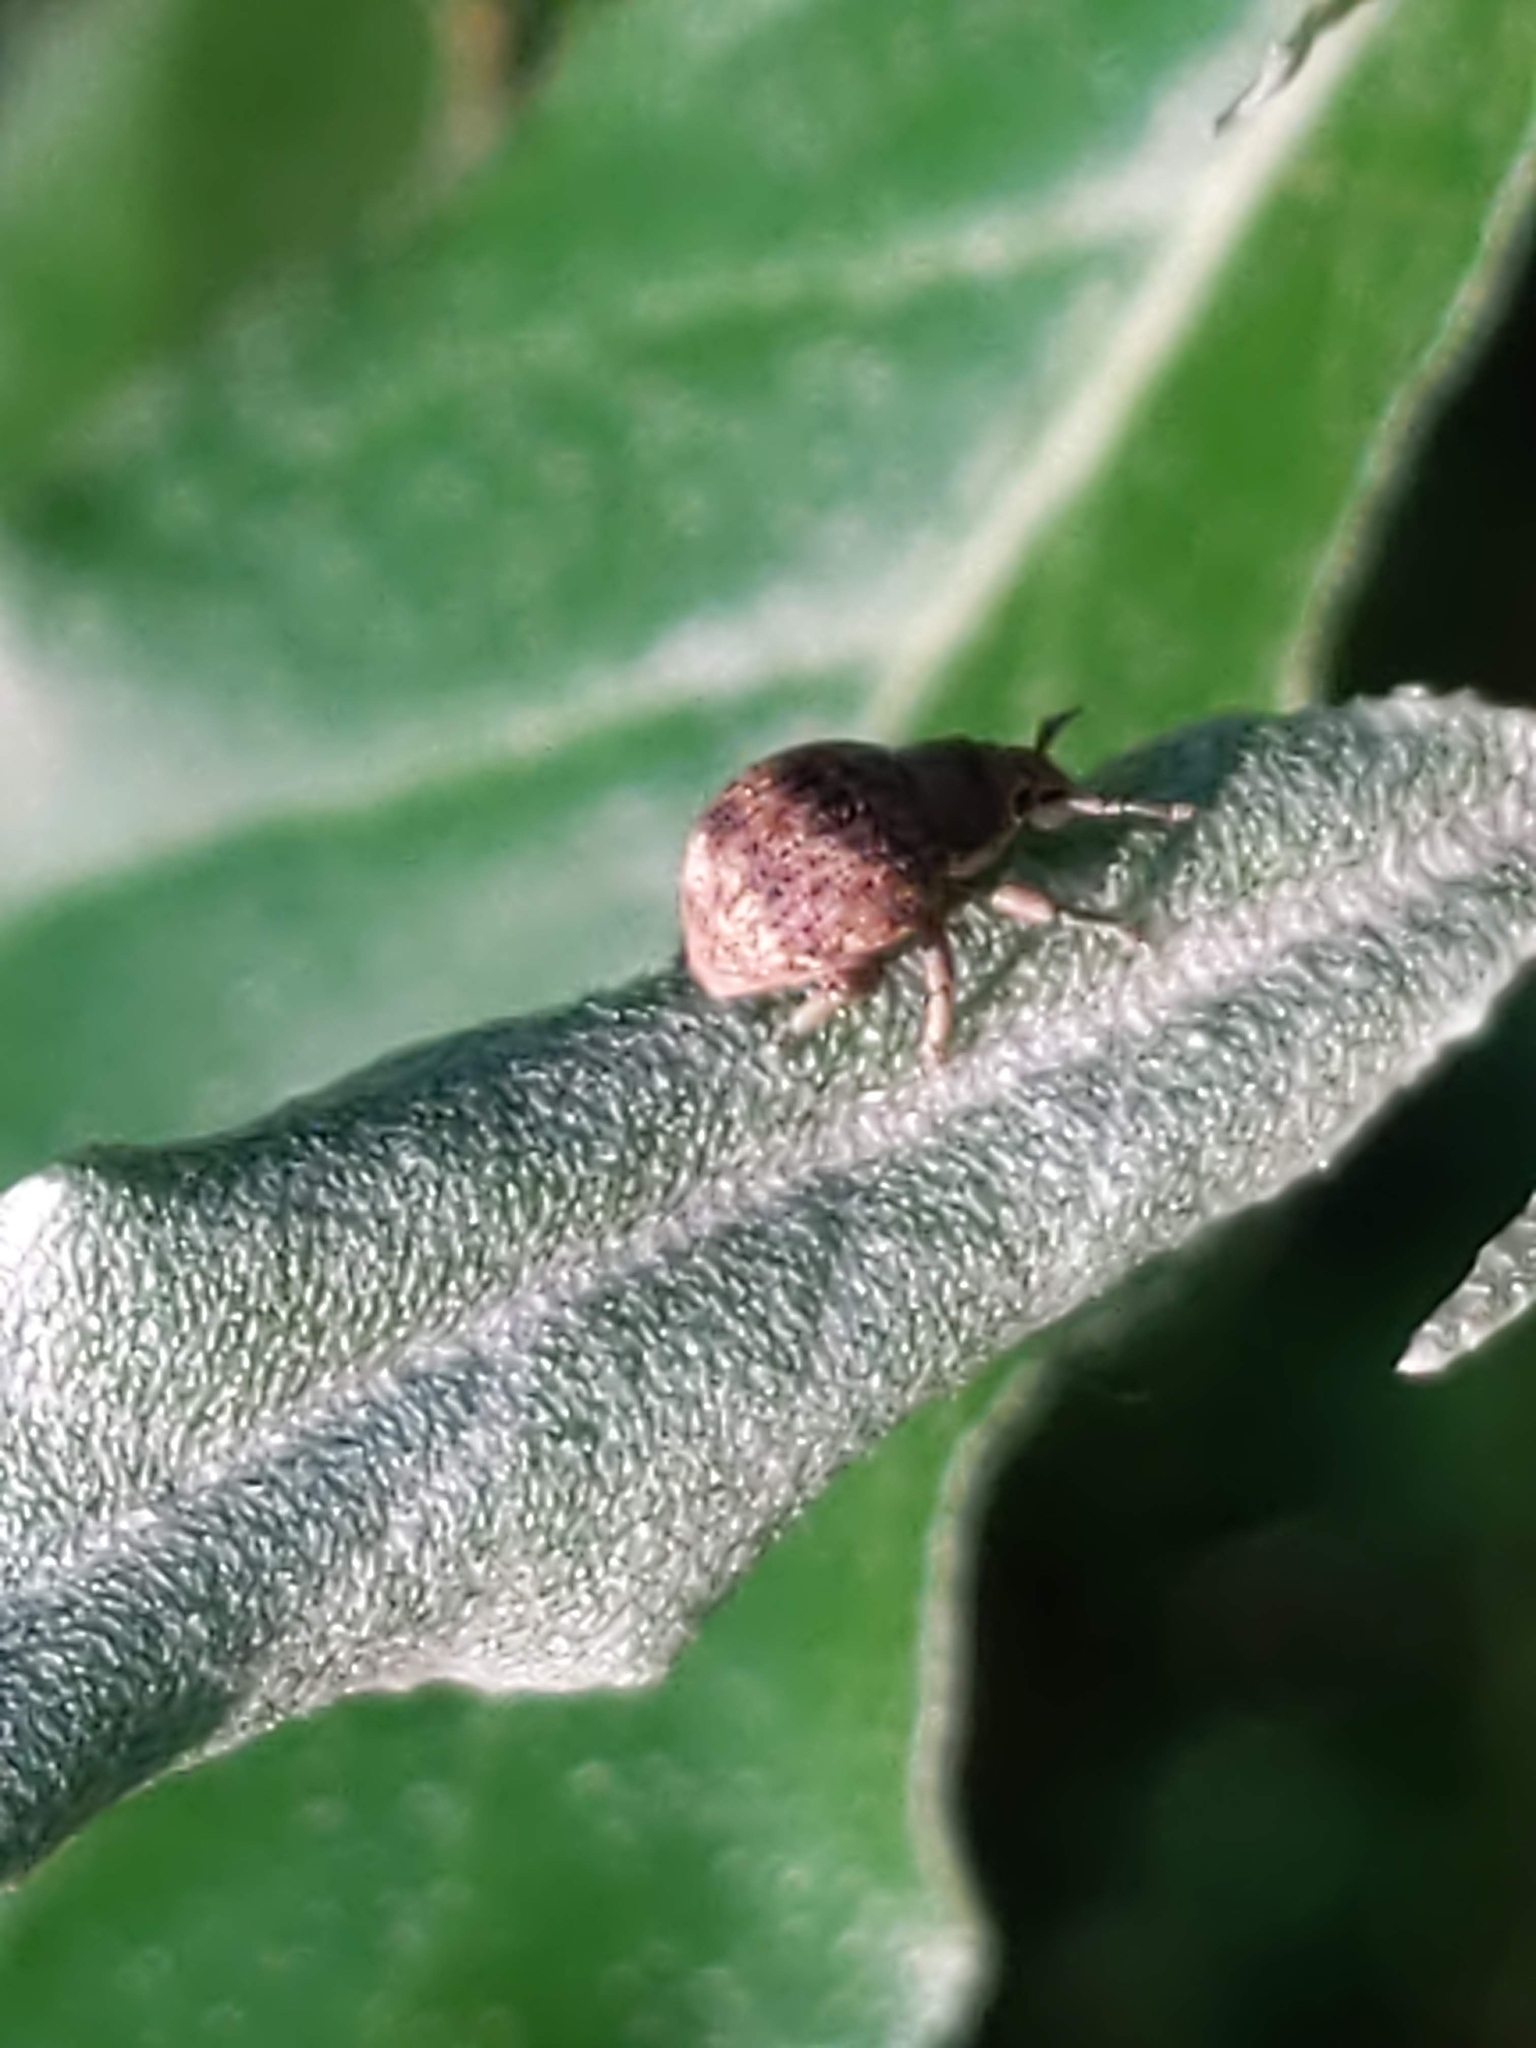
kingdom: Animalia
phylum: Arthropoda
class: Insecta
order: Coleoptera
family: Curculionidae
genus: Pseudocneorhinus
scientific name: Pseudocneorhinus bifasciatus
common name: Two-banded japanese weevil
